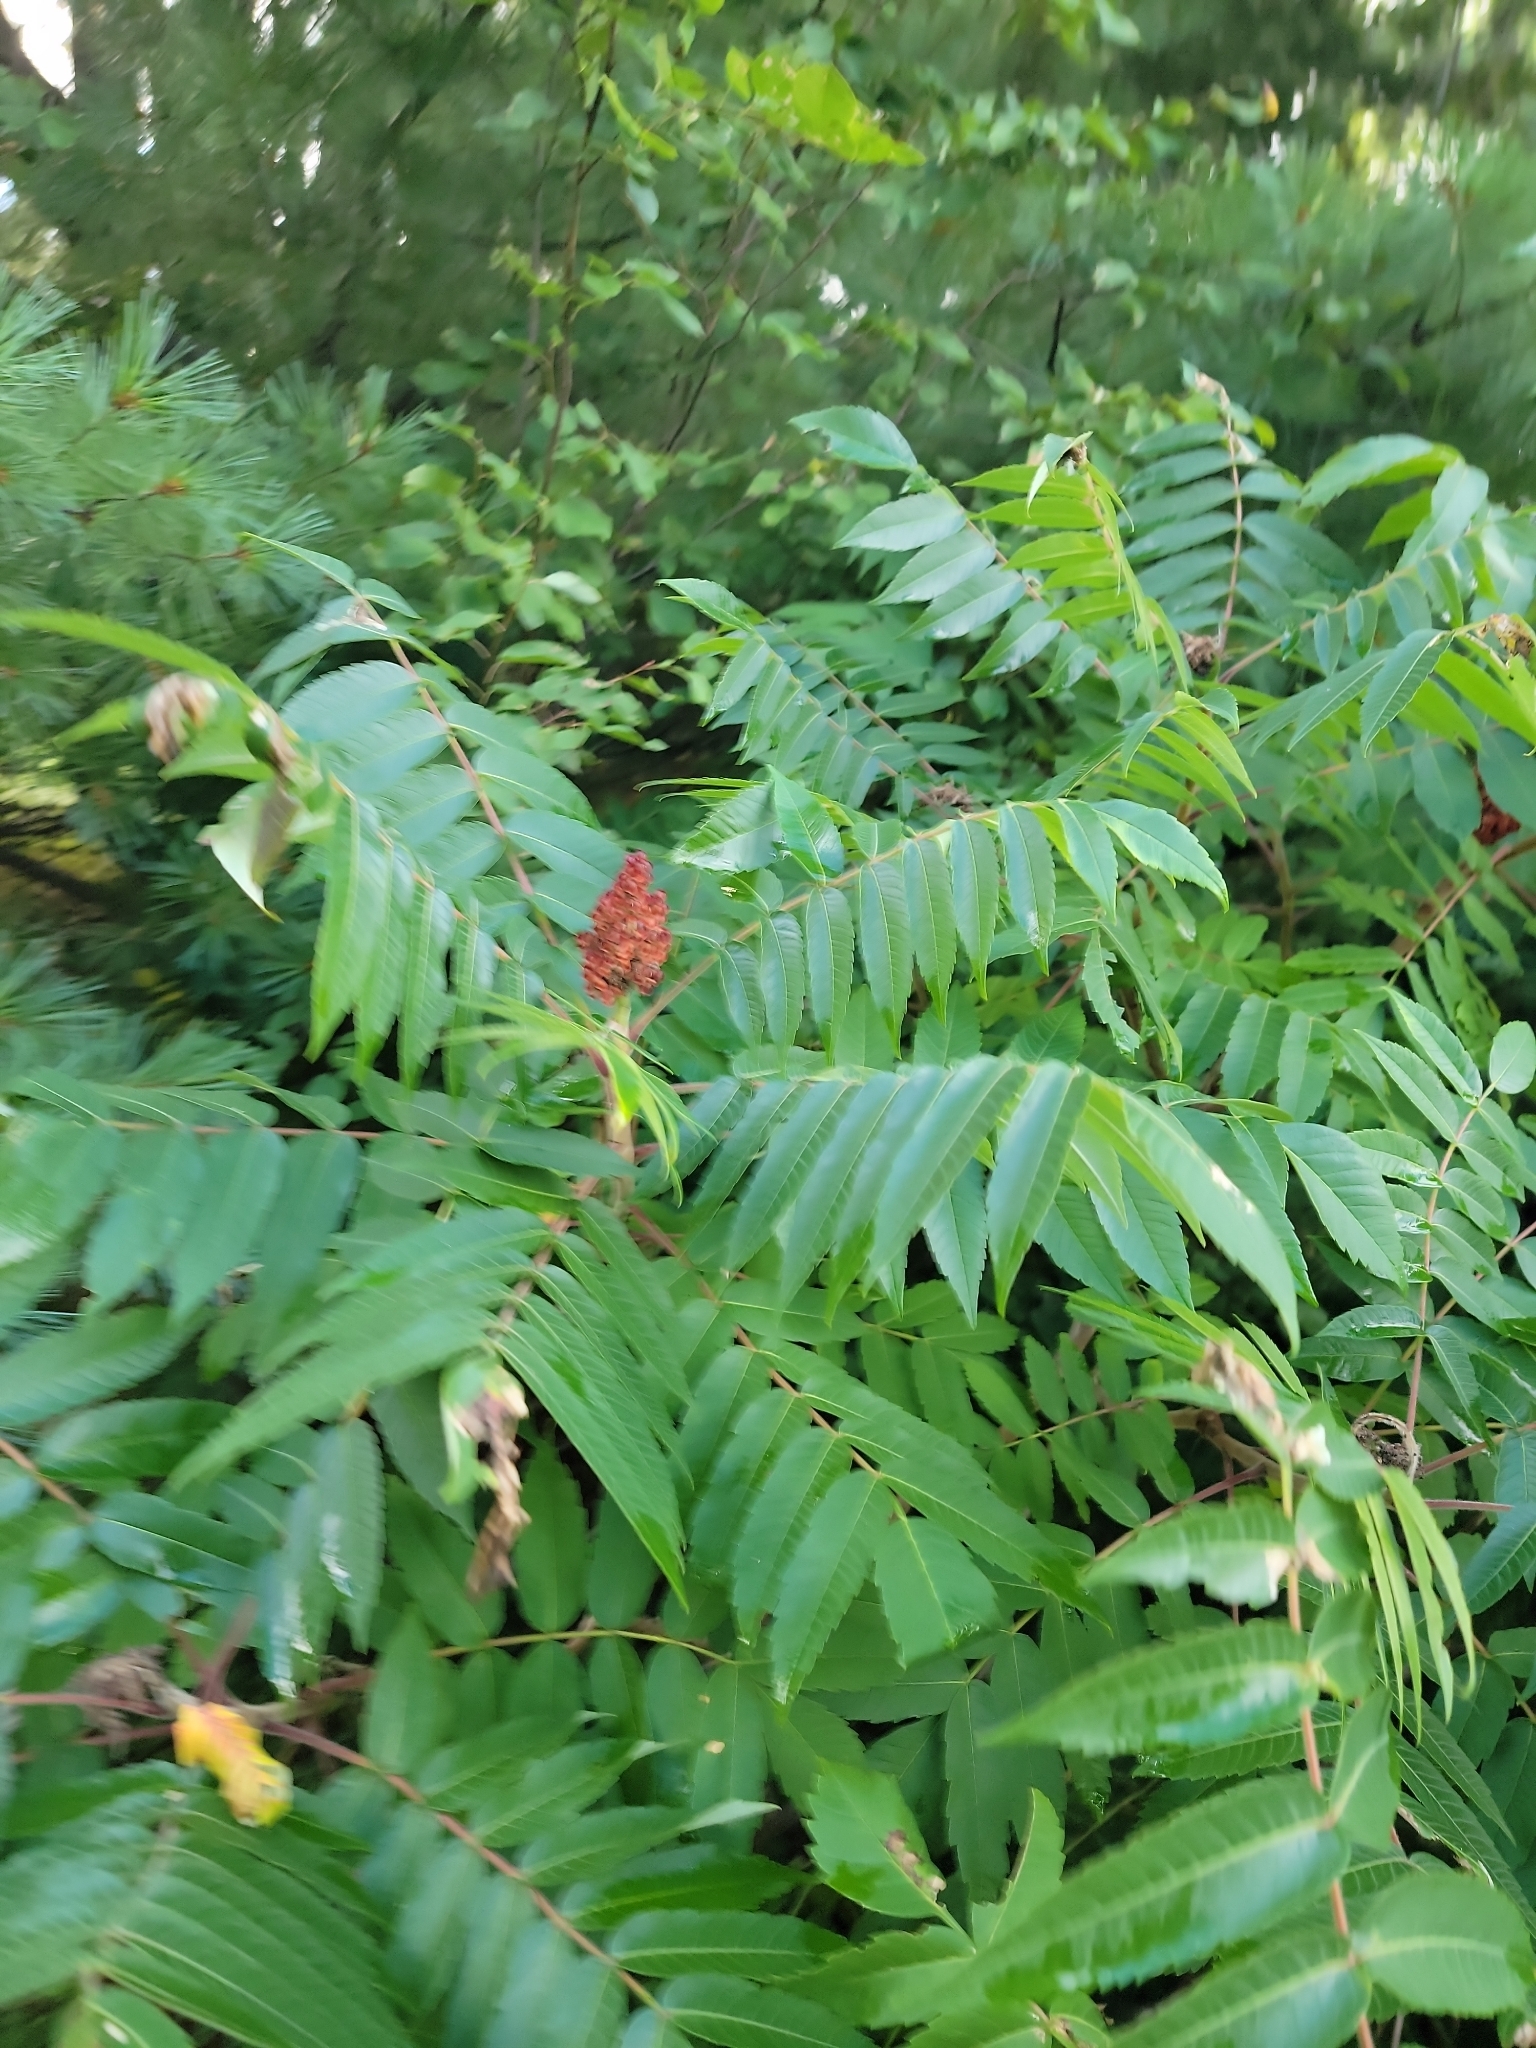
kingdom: Plantae
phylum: Tracheophyta
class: Magnoliopsida
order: Sapindales
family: Anacardiaceae
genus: Rhus
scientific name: Rhus typhina
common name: Staghorn sumac
